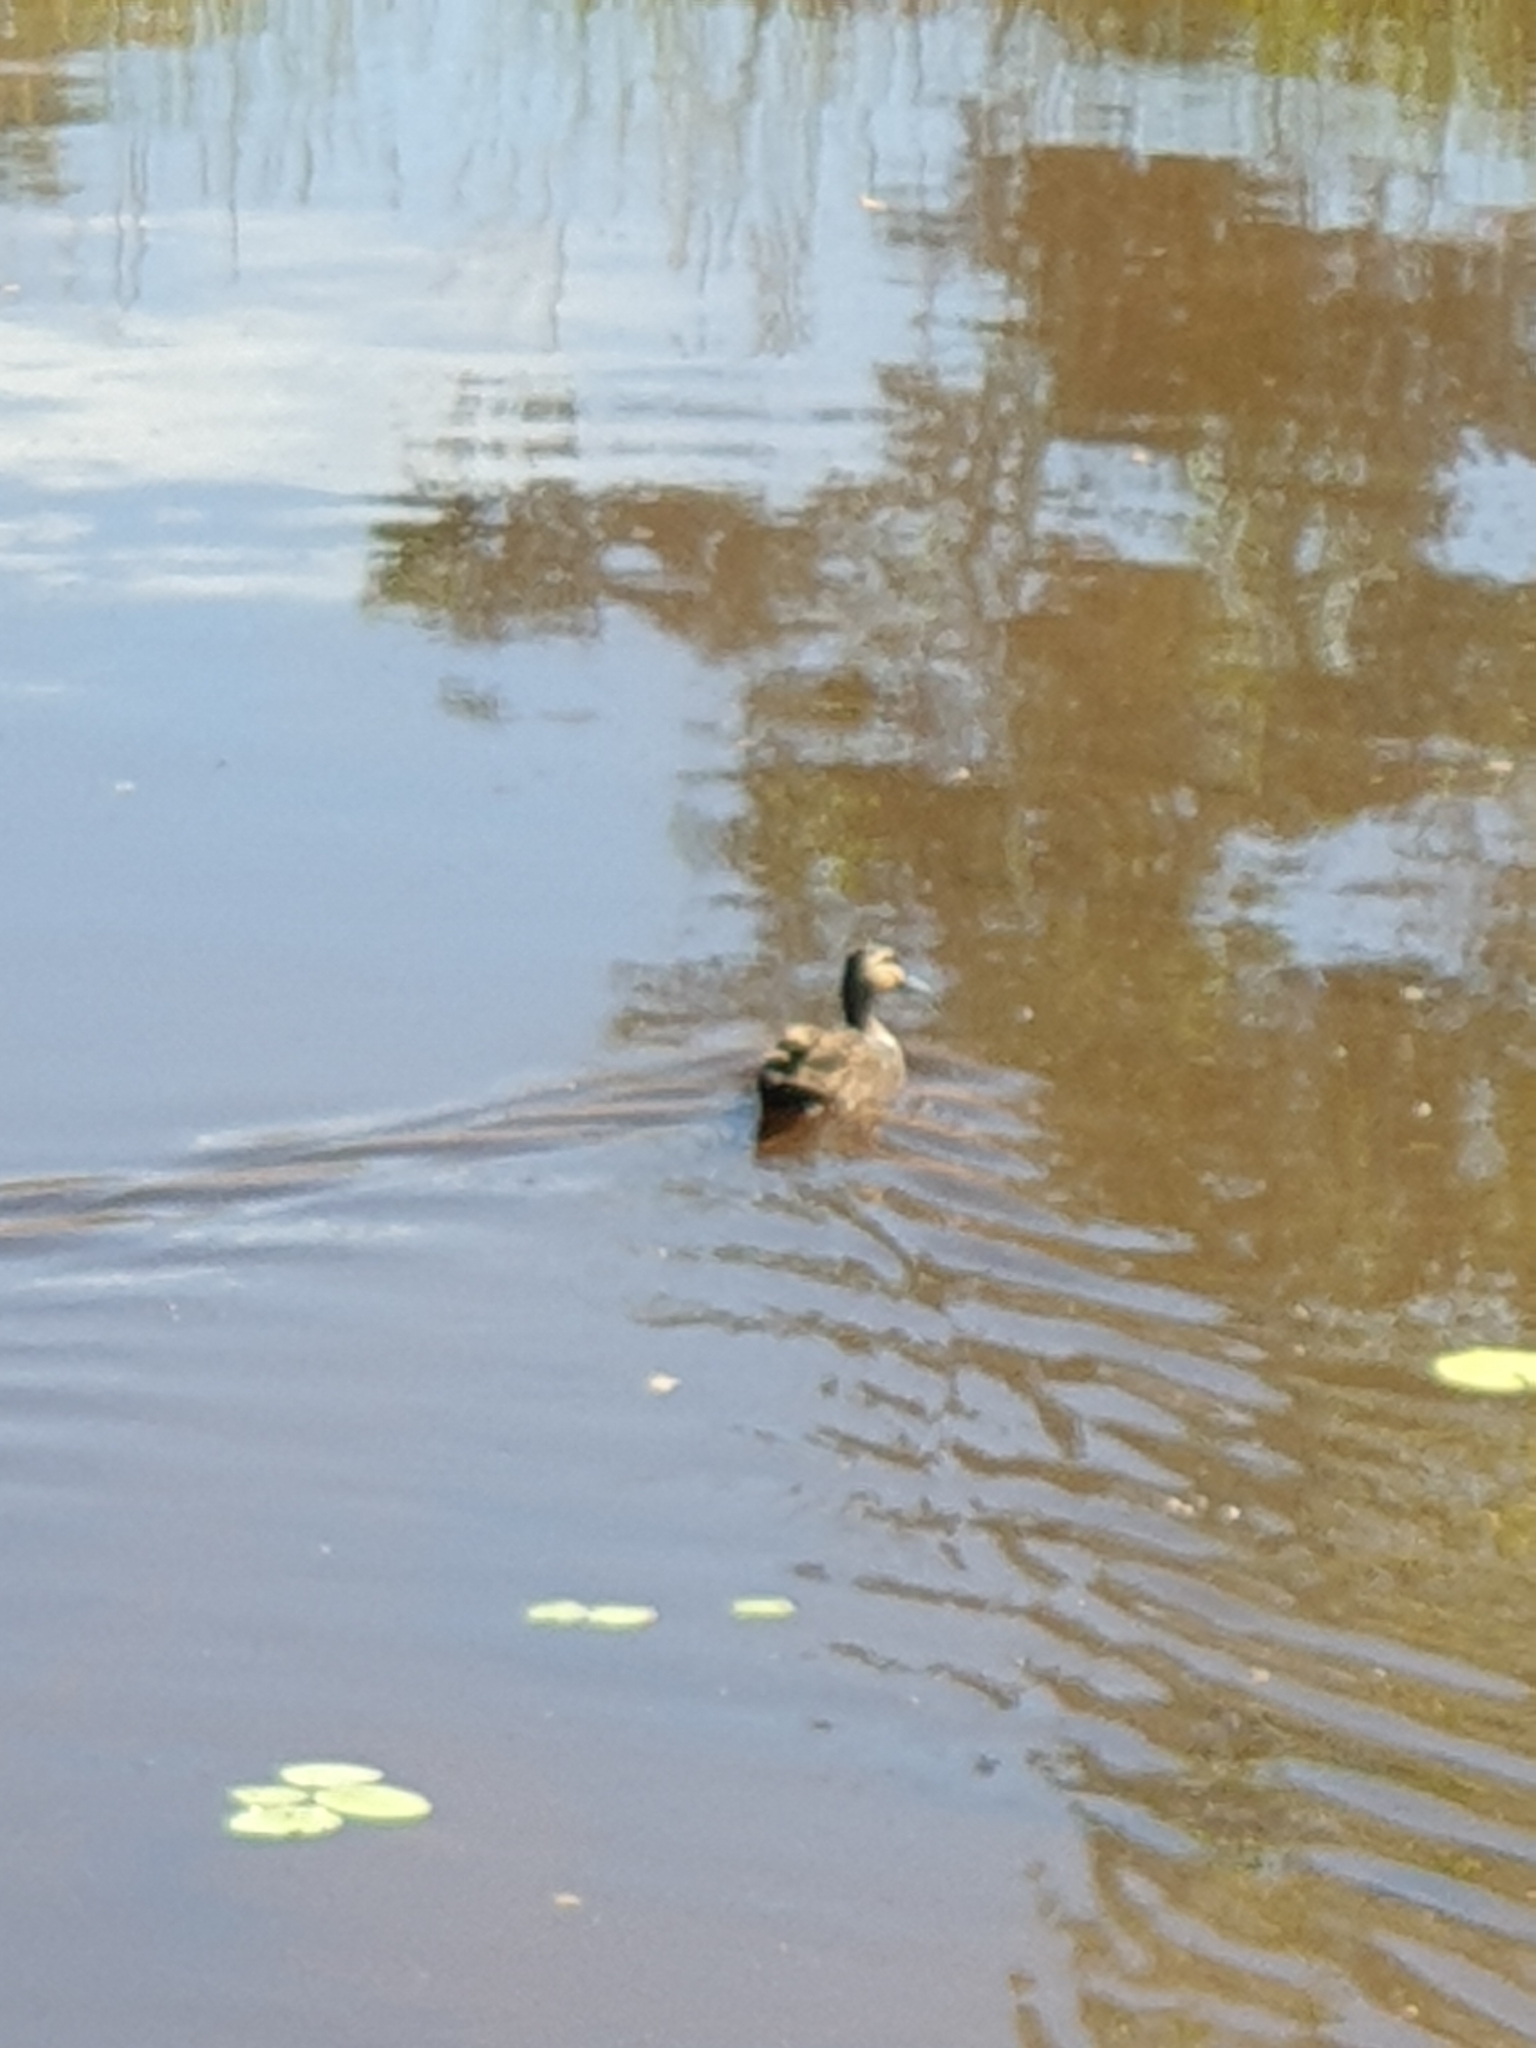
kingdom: Animalia
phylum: Chordata
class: Aves
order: Anseriformes
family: Anatidae
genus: Anas
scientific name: Anas superciliosa
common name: Pacific black duck
